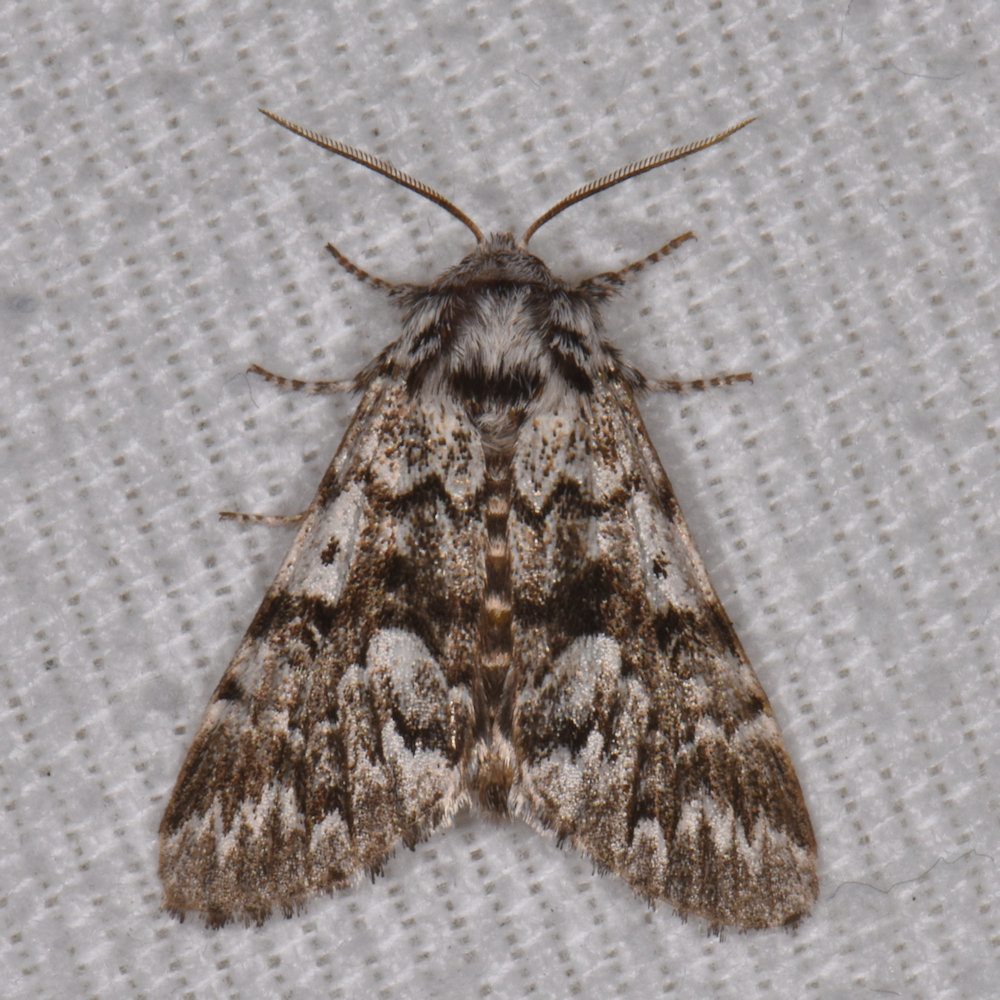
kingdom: Animalia
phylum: Arthropoda
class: Insecta
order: Lepidoptera
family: Noctuidae
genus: Panthea
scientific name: Panthea acronyctoides
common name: Black zigzag moth
